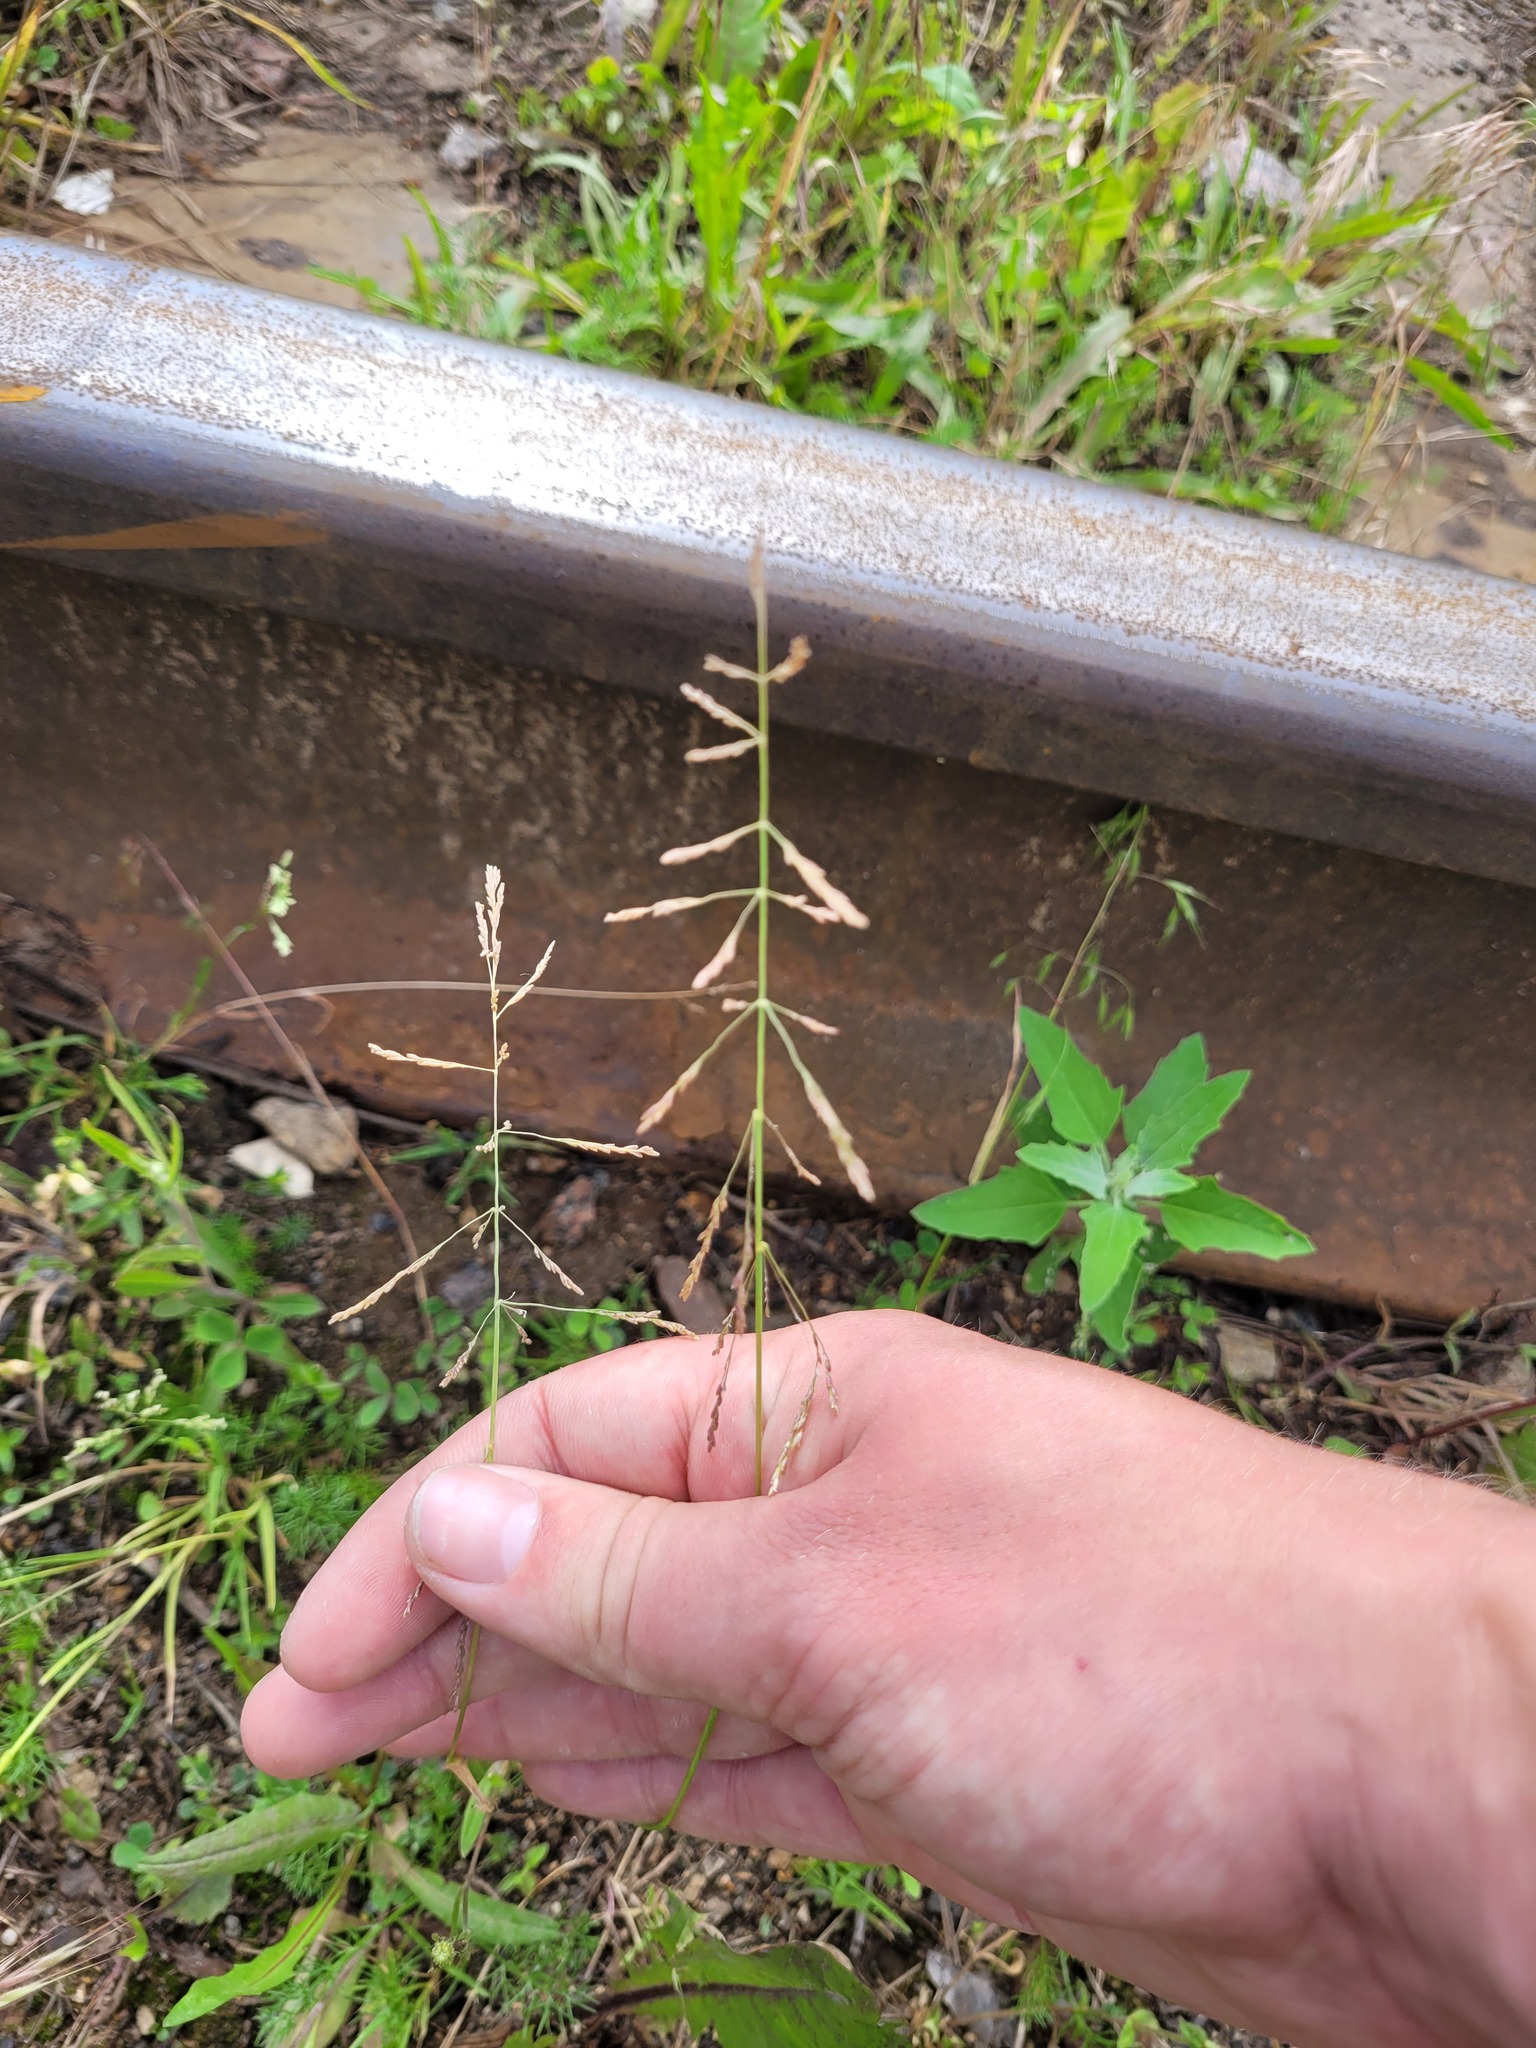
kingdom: Plantae
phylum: Tracheophyta
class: Liliopsida
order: Poales
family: Poaceae
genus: Puccinellia
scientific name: Puccinellia distans
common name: Weeping alkaligrass
